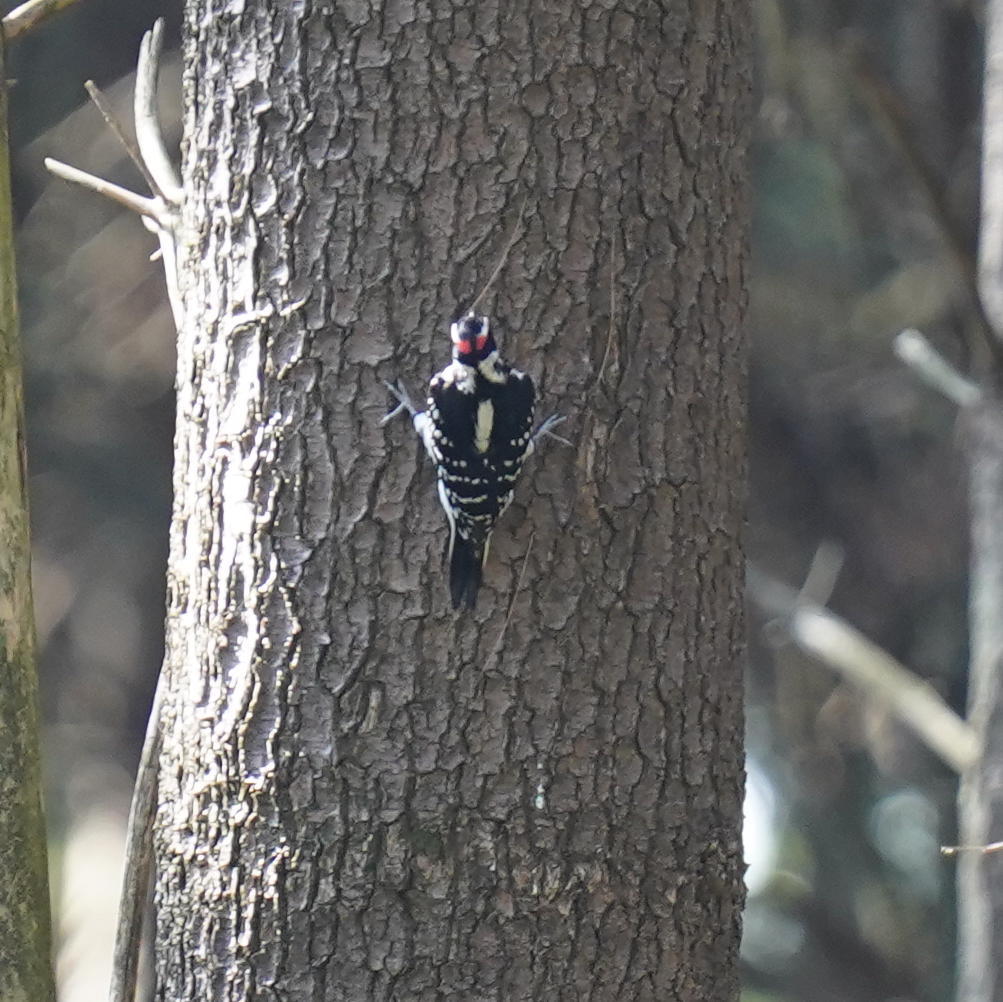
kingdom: Animalia
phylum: Chordata
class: Aves
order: Piciformes
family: Picidae
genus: Leuconotopicus
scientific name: Leuconotopicus villosus
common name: Hairy woodpecker
